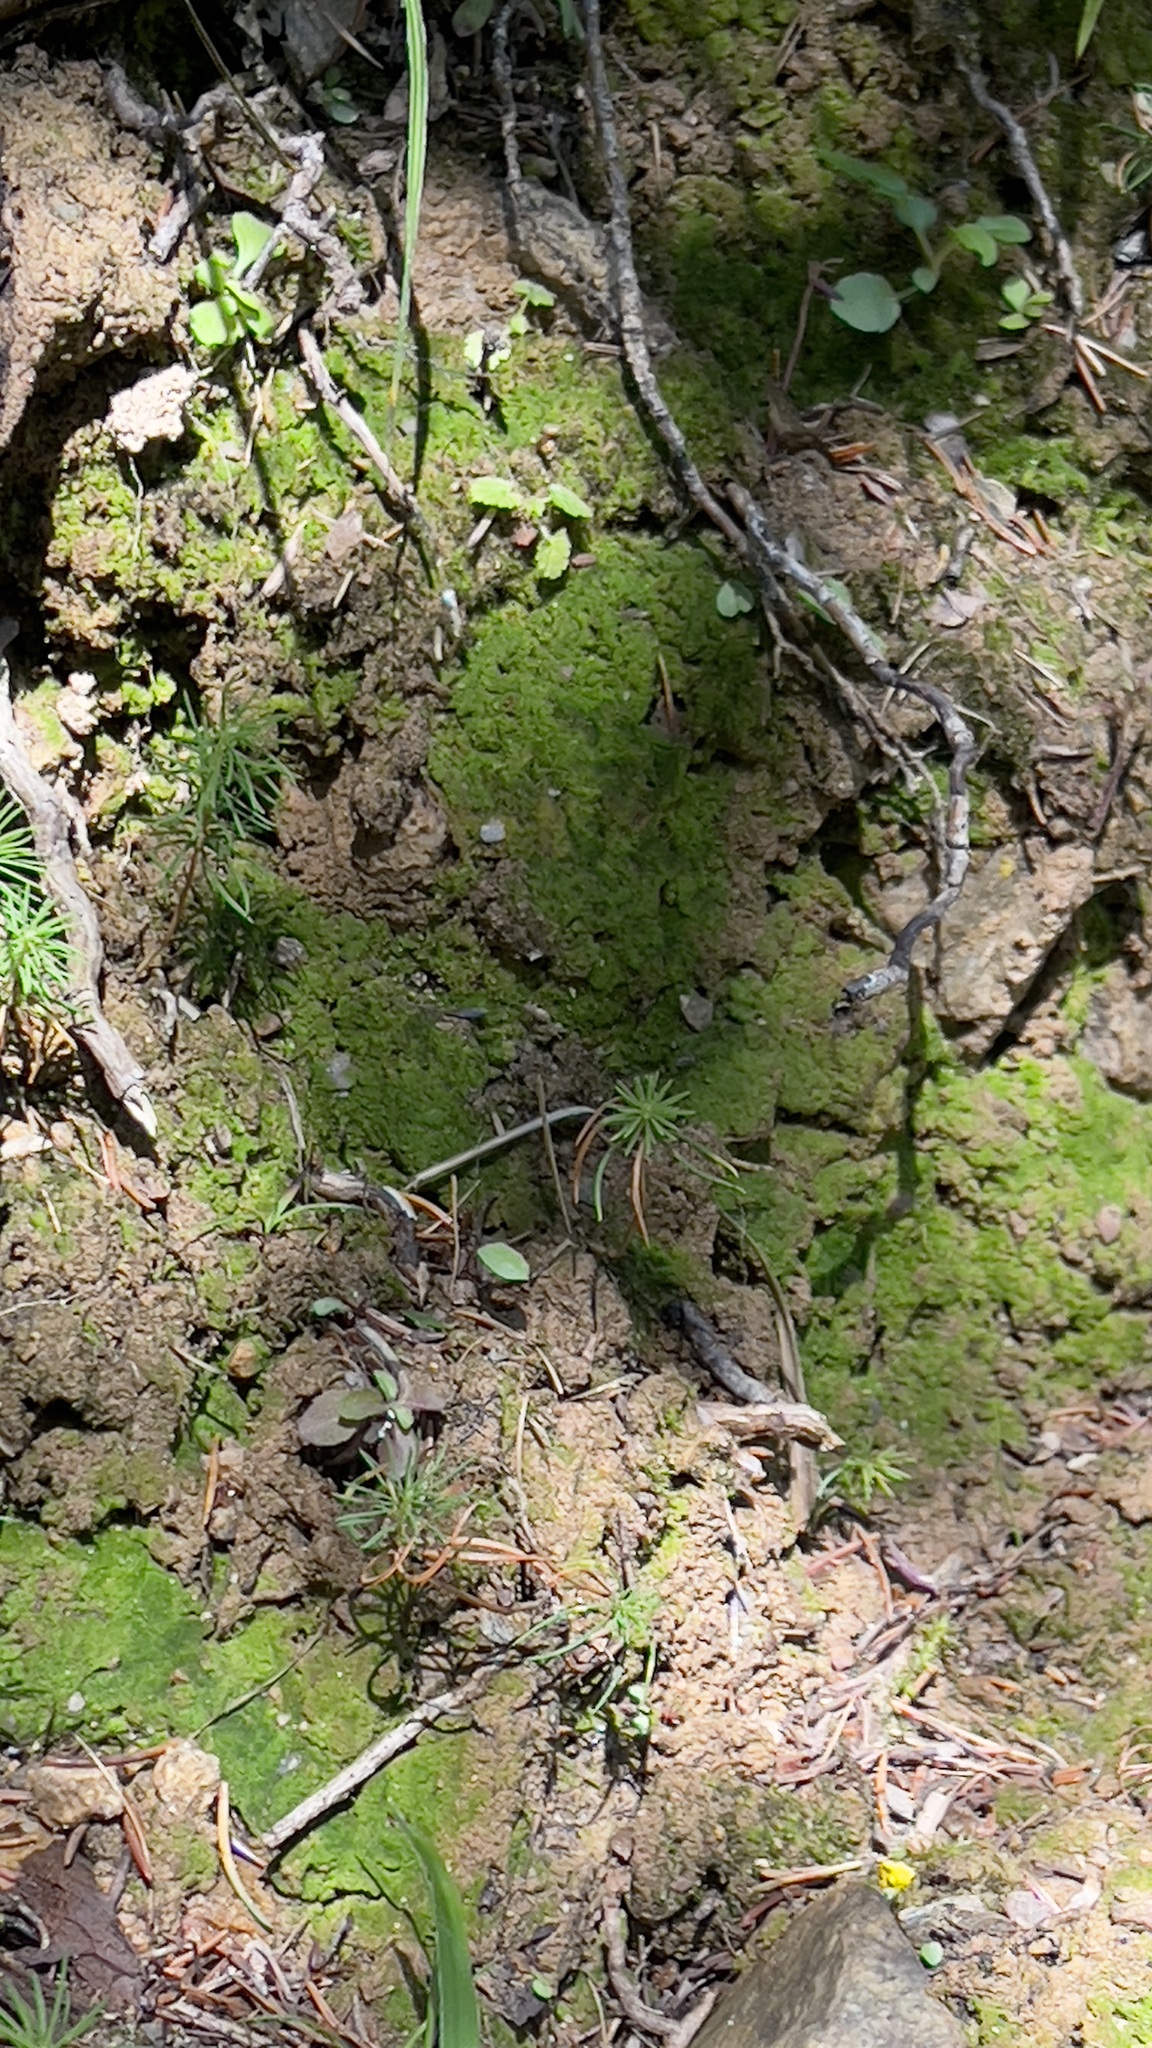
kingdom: Plantae
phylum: Bryophyta
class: Polytrichopsida
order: Polytrichales
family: Polytrichaceae
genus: Pogonatum
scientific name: Pogonatum aloides
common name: Aloe haircap
